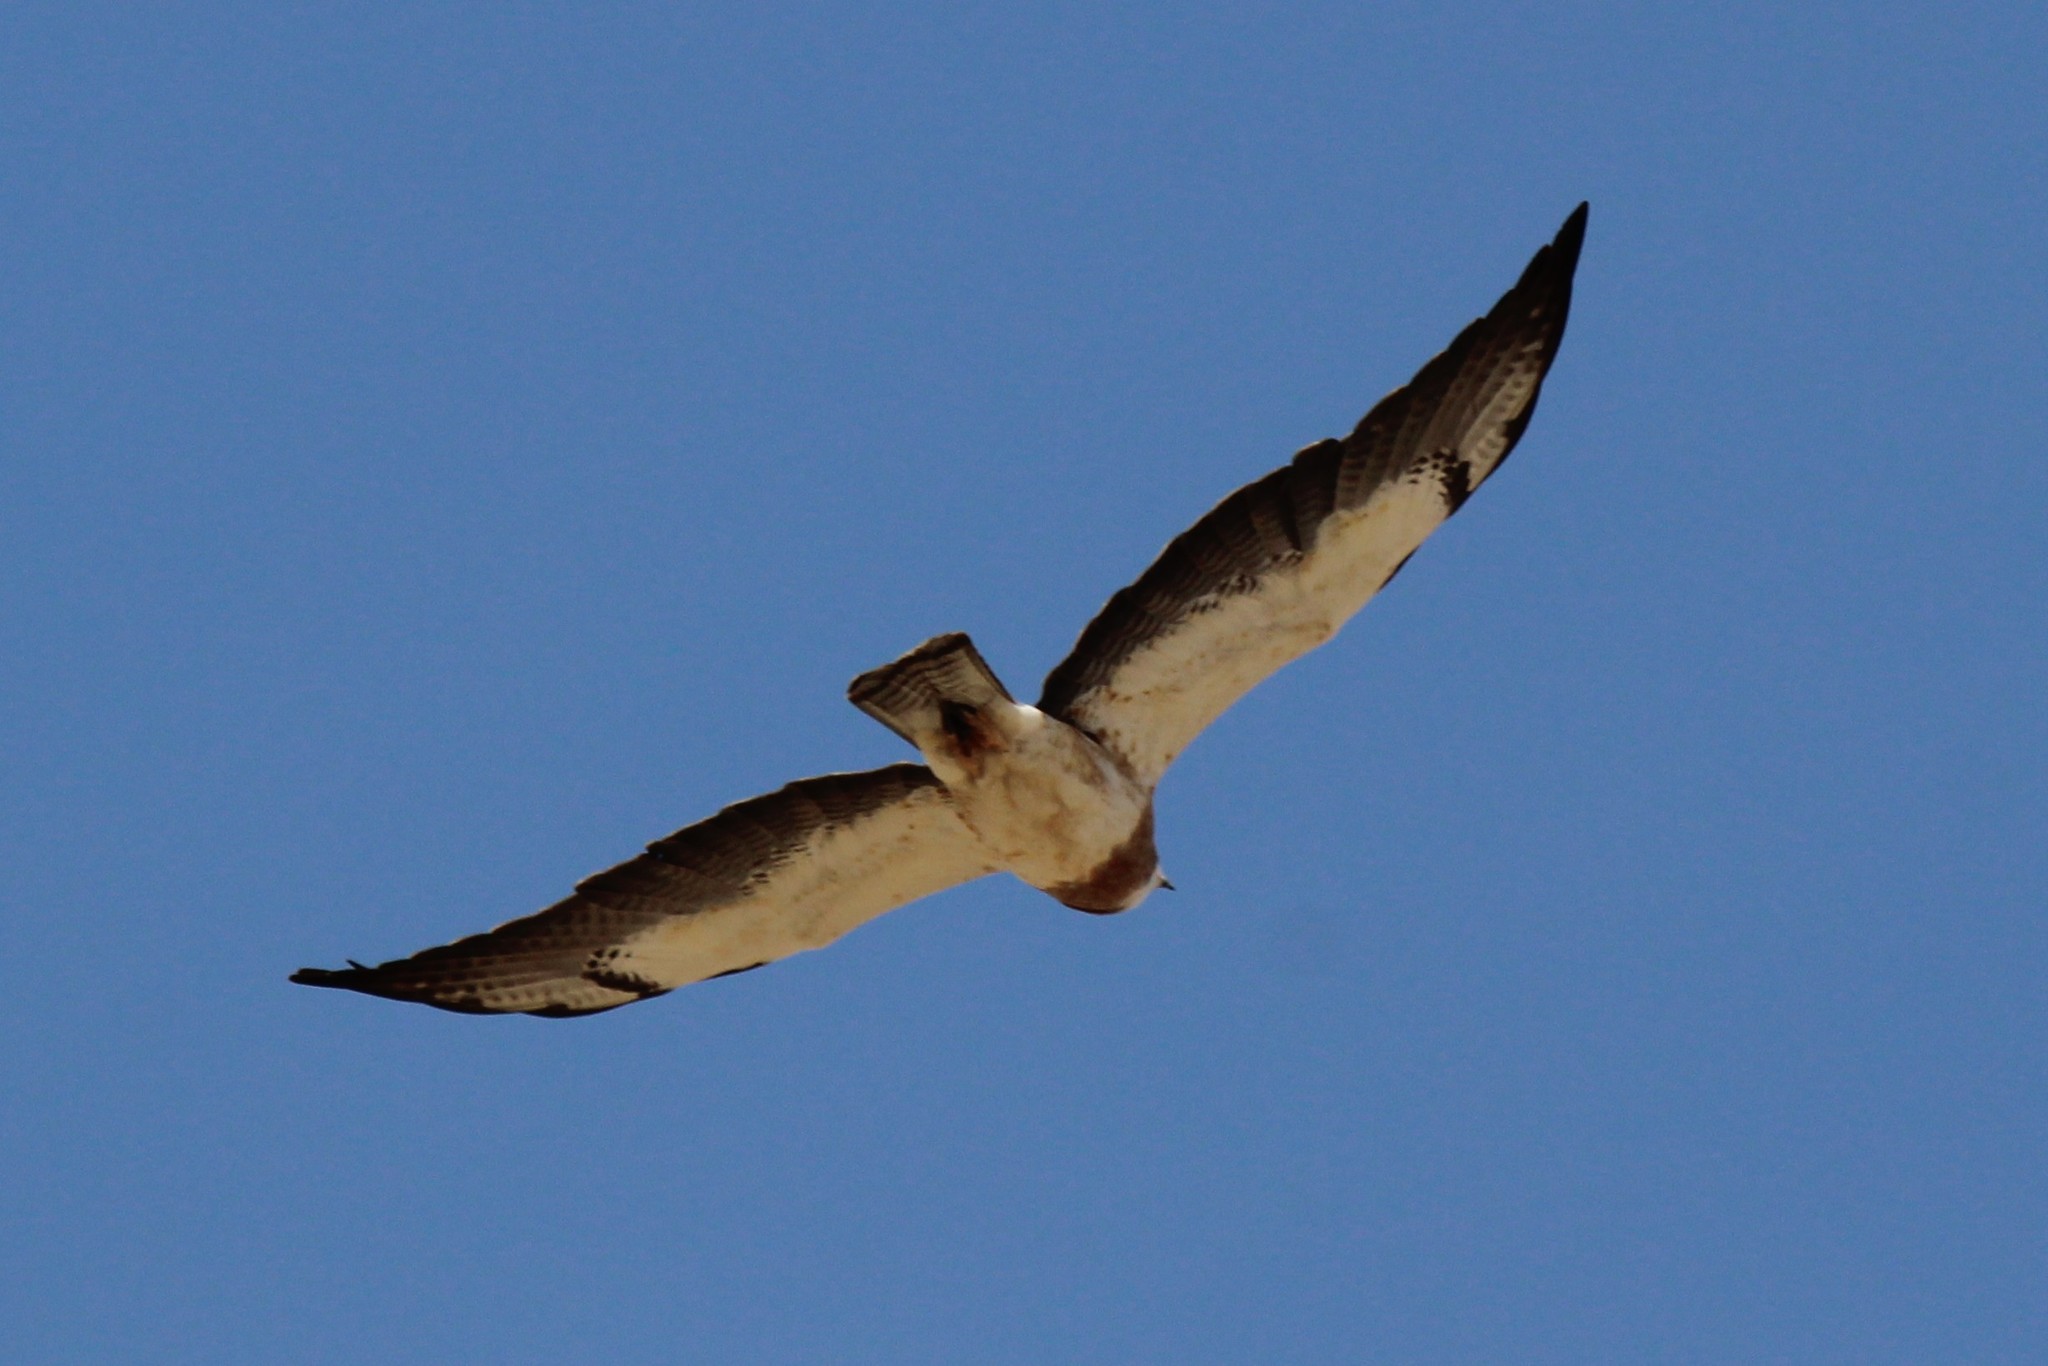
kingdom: Animalia
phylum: Chordata
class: Aves
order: Accipitriformes
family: Accipitridae
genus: Buteo
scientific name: Buteo swainsoni
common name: Swainson's hawk
